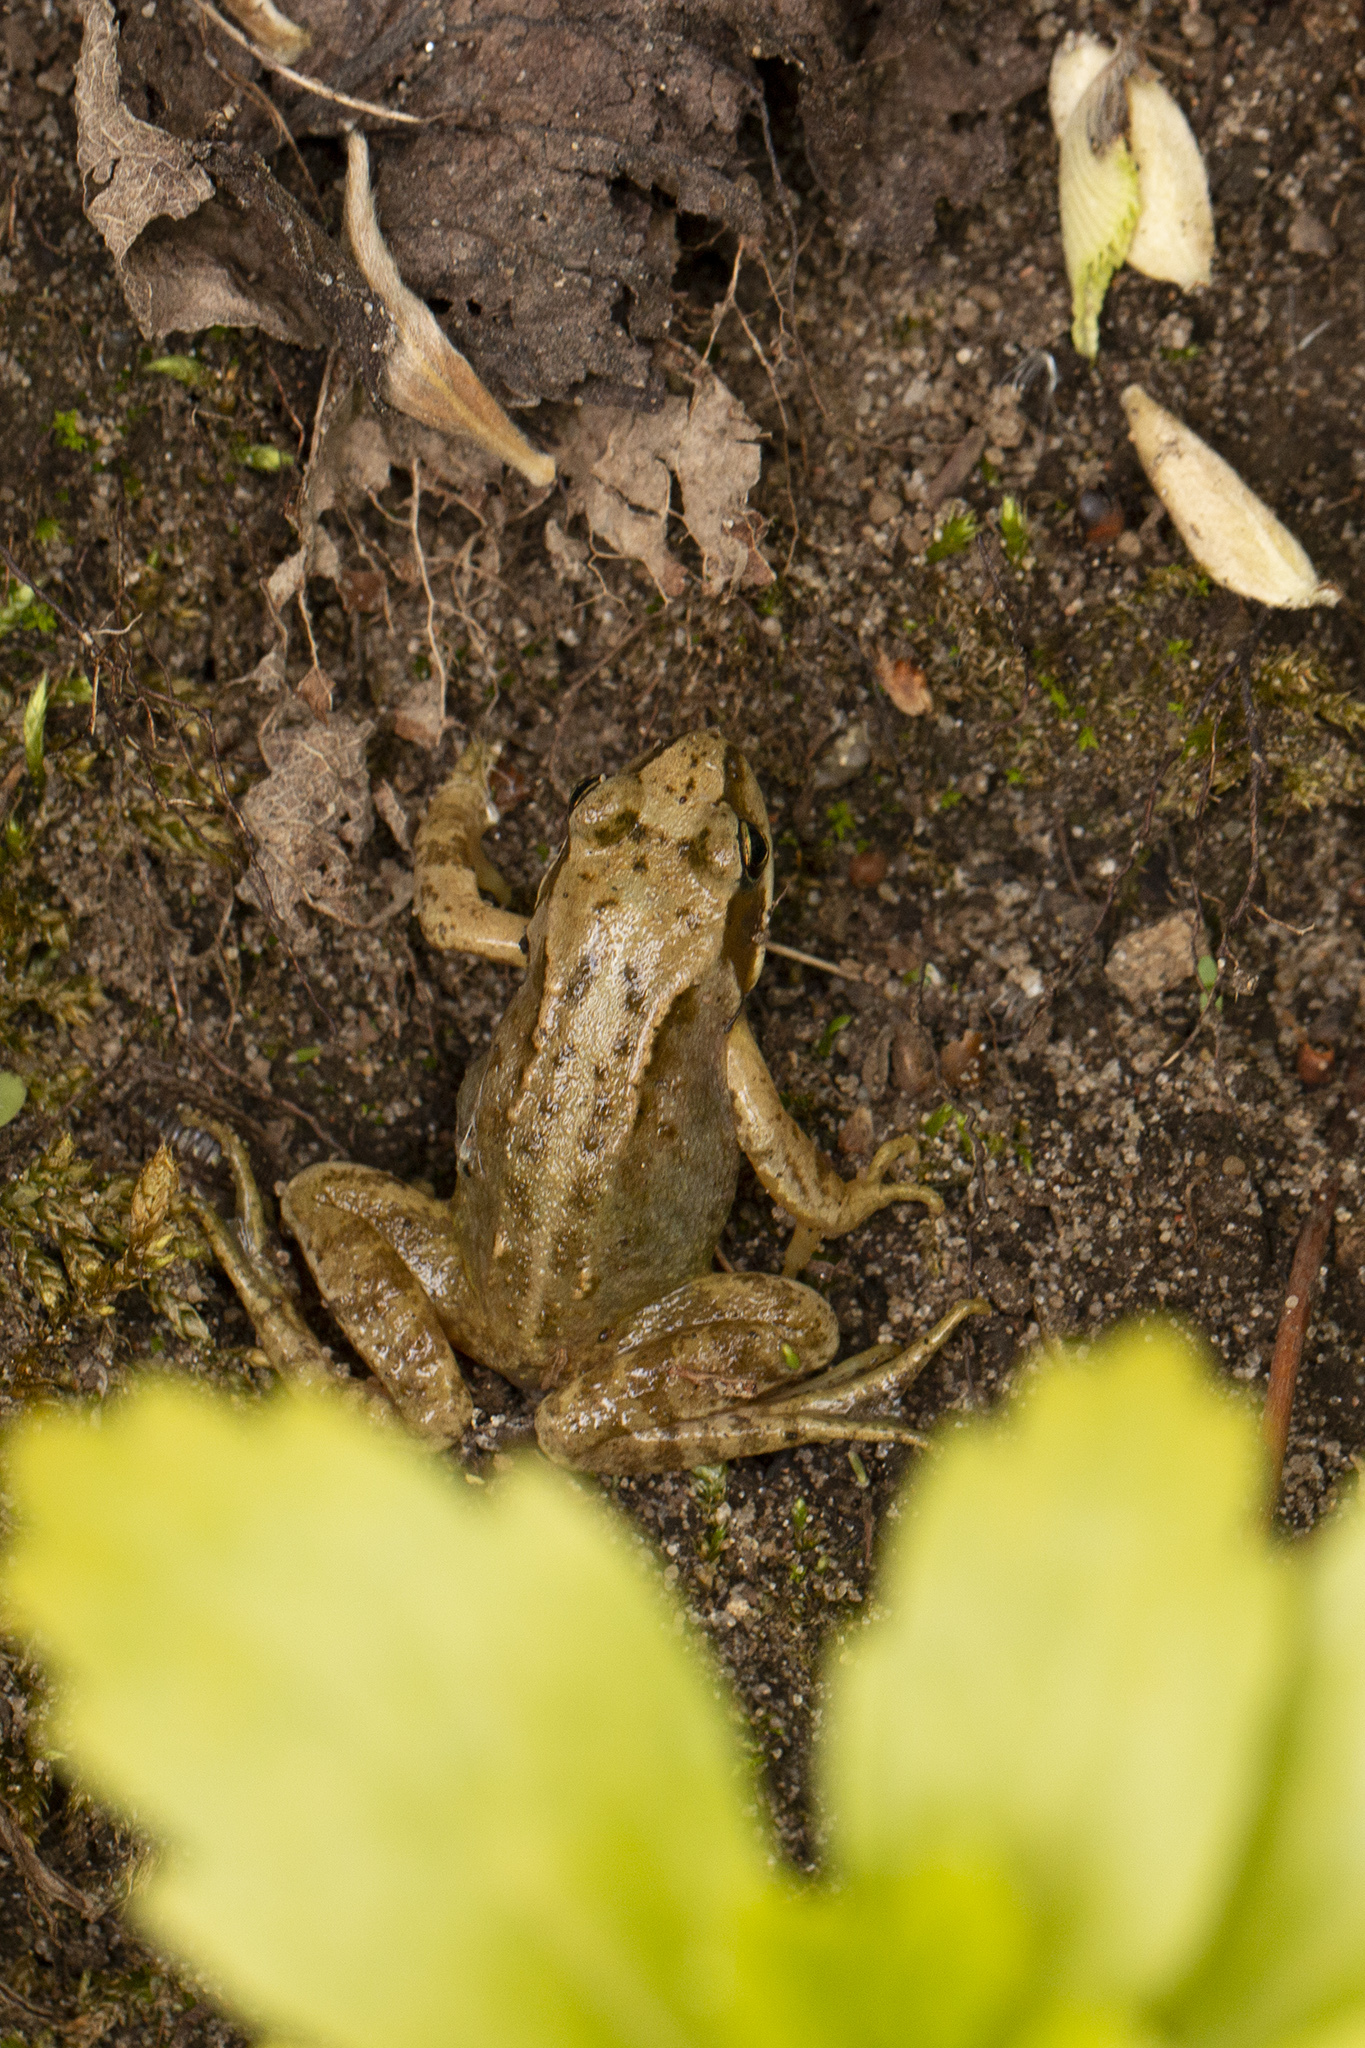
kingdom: Animalia
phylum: Chordata
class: Amphibia
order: Anura
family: Ranidae
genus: Rana
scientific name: Rana temporaria
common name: Common frog
